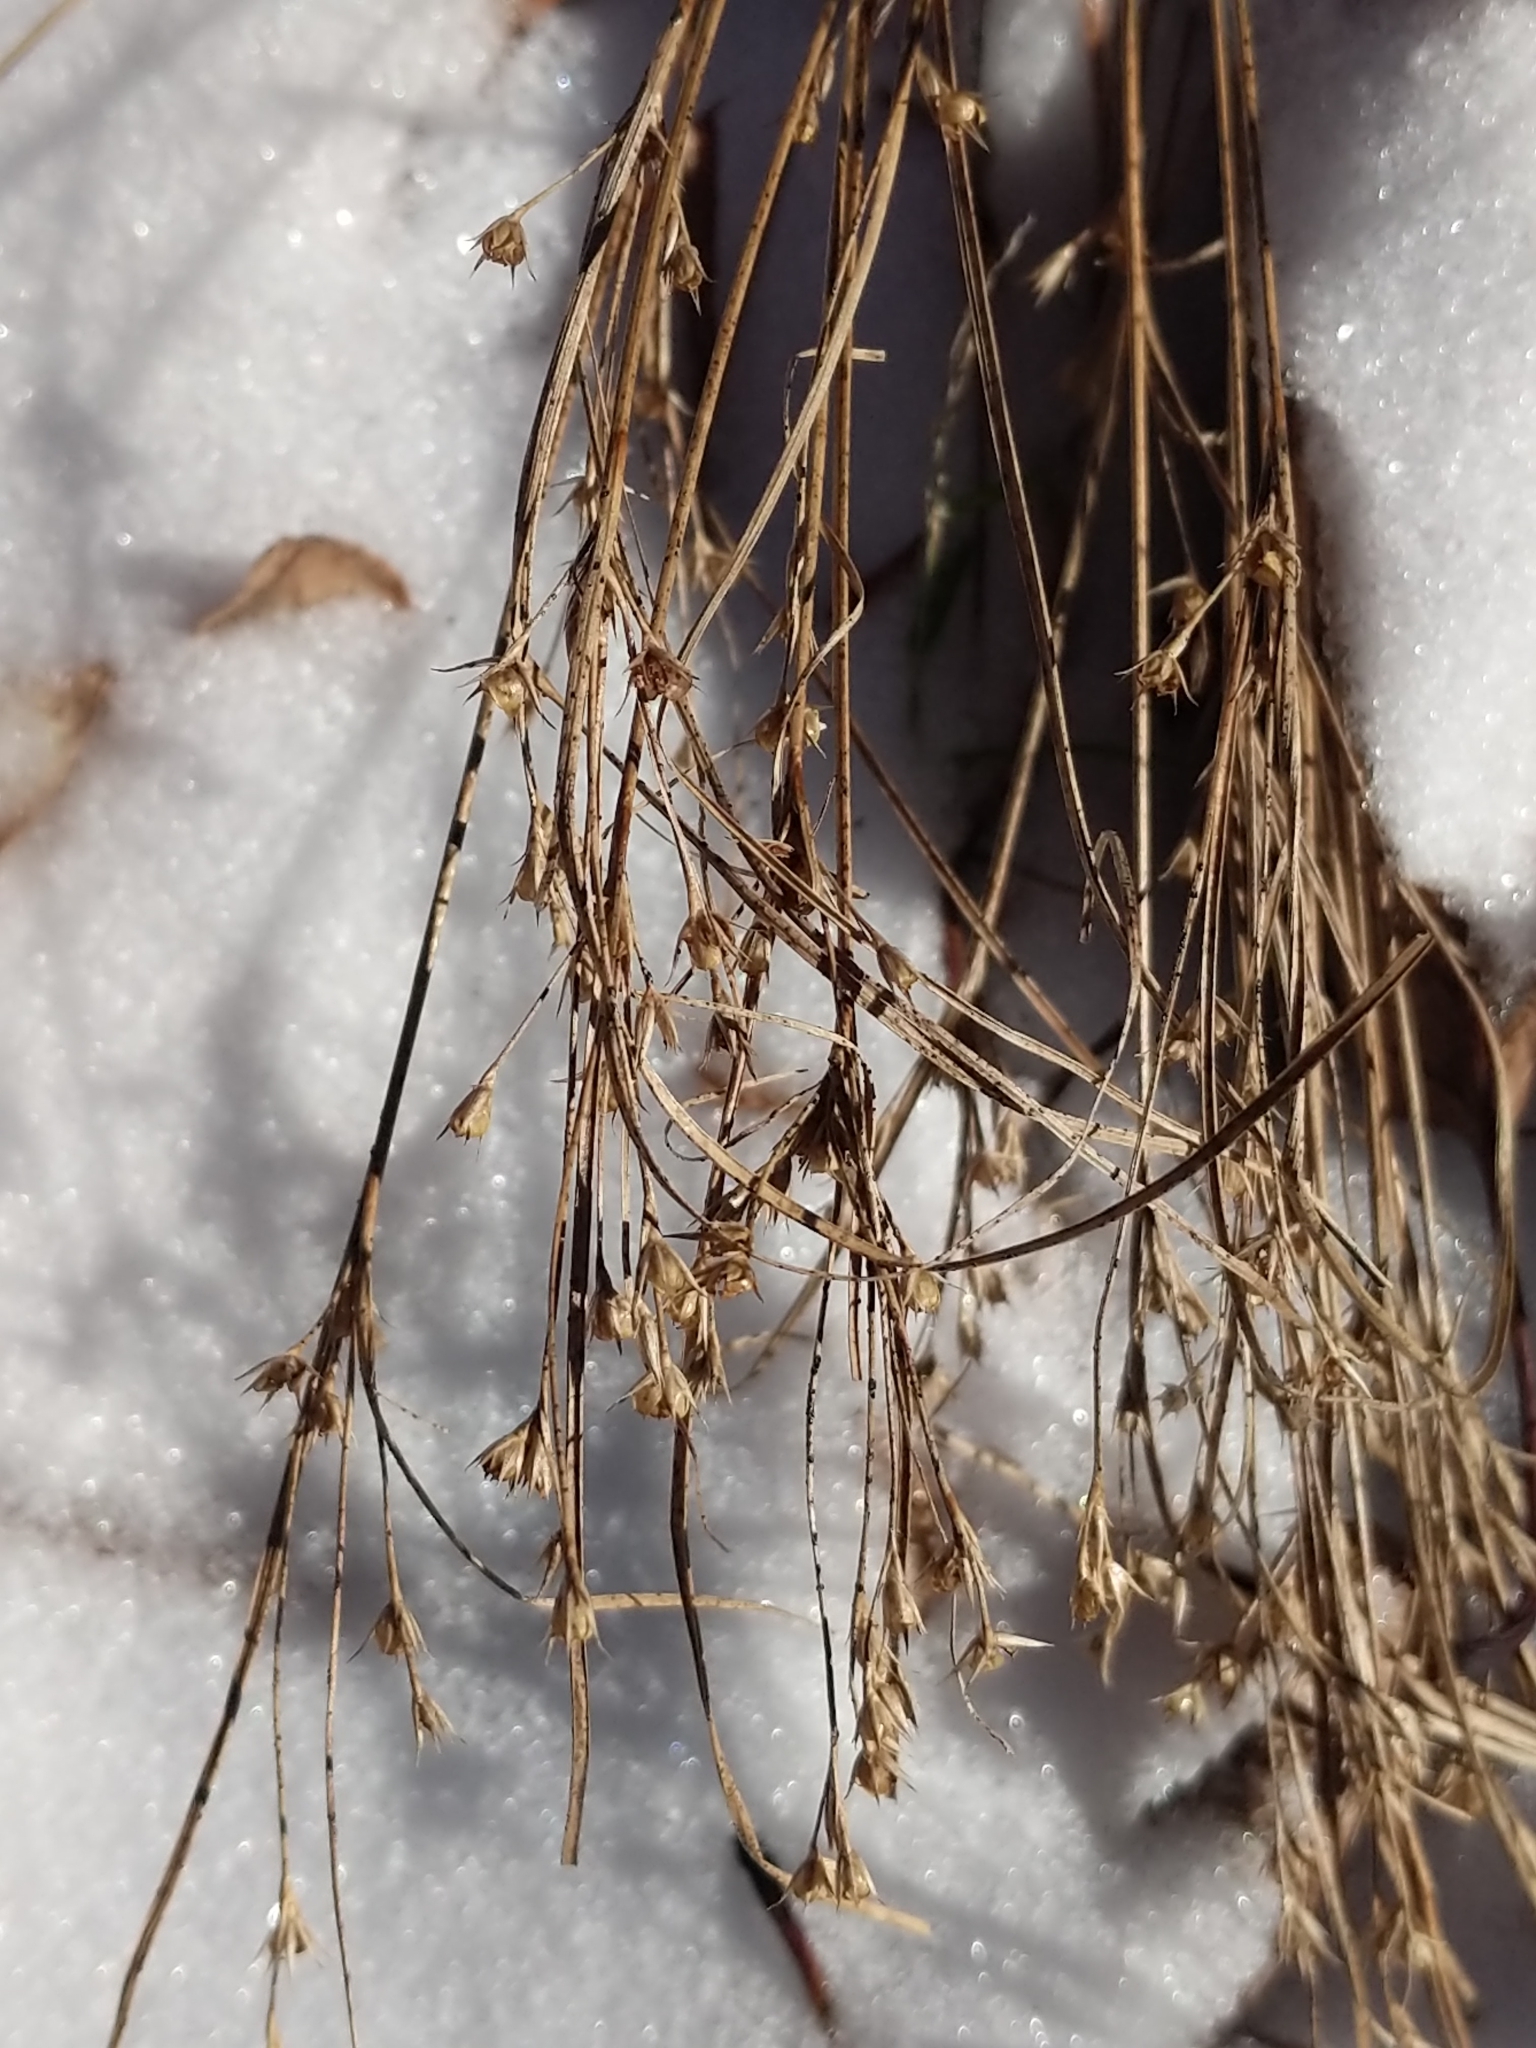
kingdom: Plantae
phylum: Tracheophyta
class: Liliopsida
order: Poales
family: Juncaceae
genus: Juncus
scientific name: Juncus tenuis
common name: Slender rush
